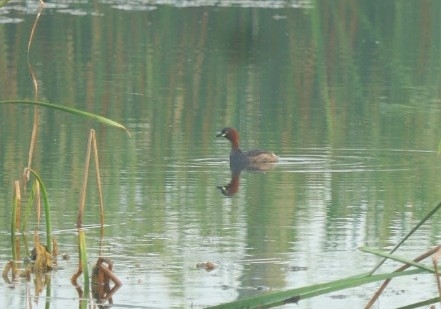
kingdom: Animalia
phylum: Chordata
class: Aves
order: Podicipediformes
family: Podicipedidae
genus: Tachybaptus
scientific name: Tachybaptus ruficollis
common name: Little grebe
